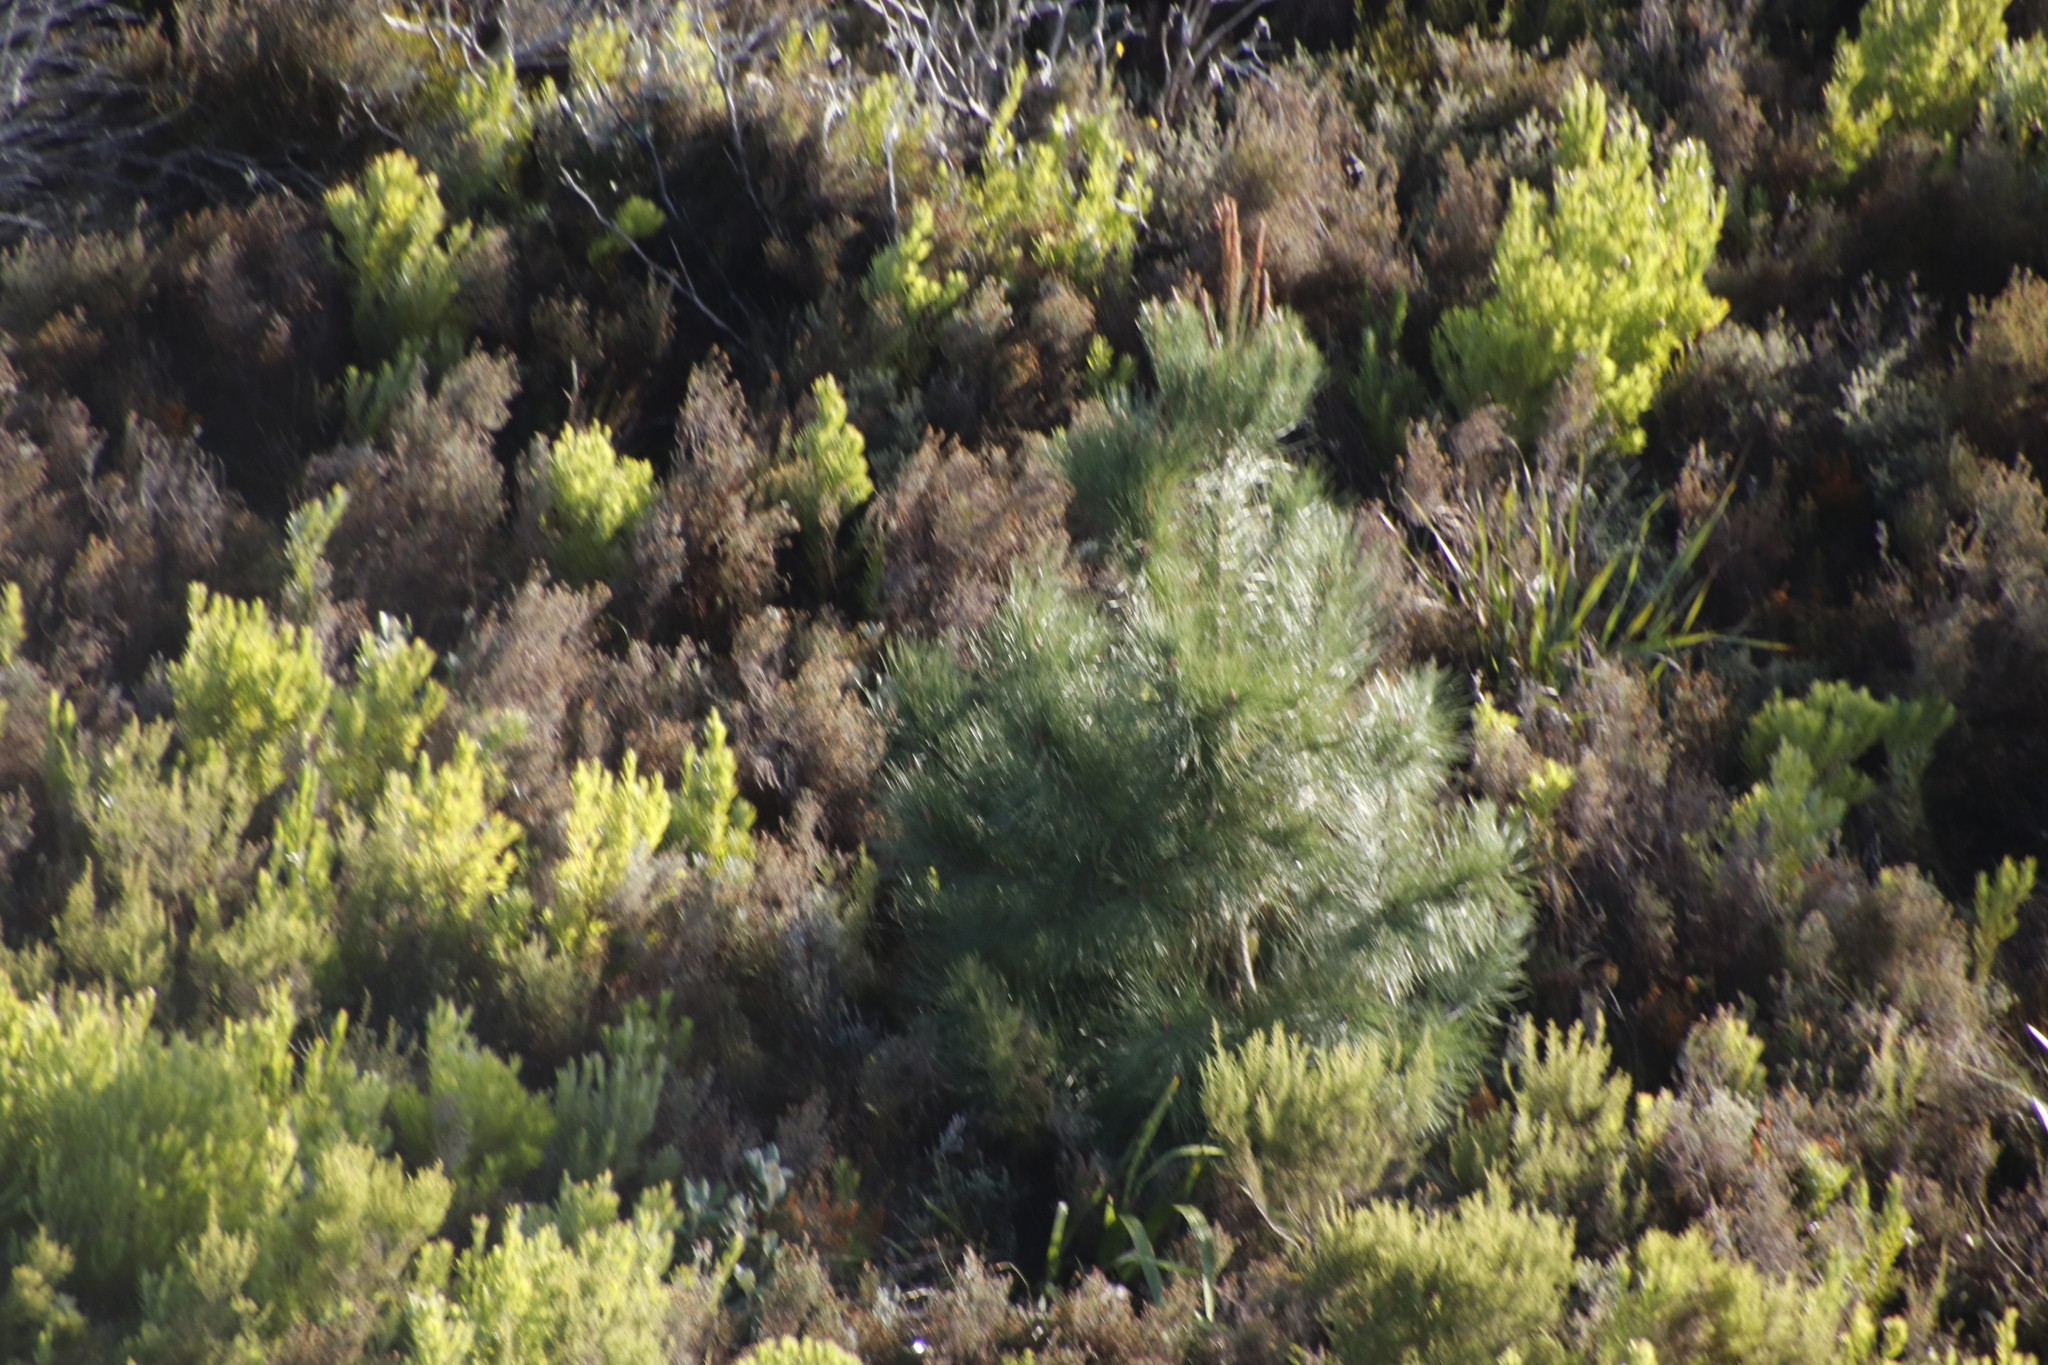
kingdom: Plantae
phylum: Tracheophyta
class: Pinopsida
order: Pinales
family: Pinaceae
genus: Pinus
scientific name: Pinus radiata
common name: Monterey pine
